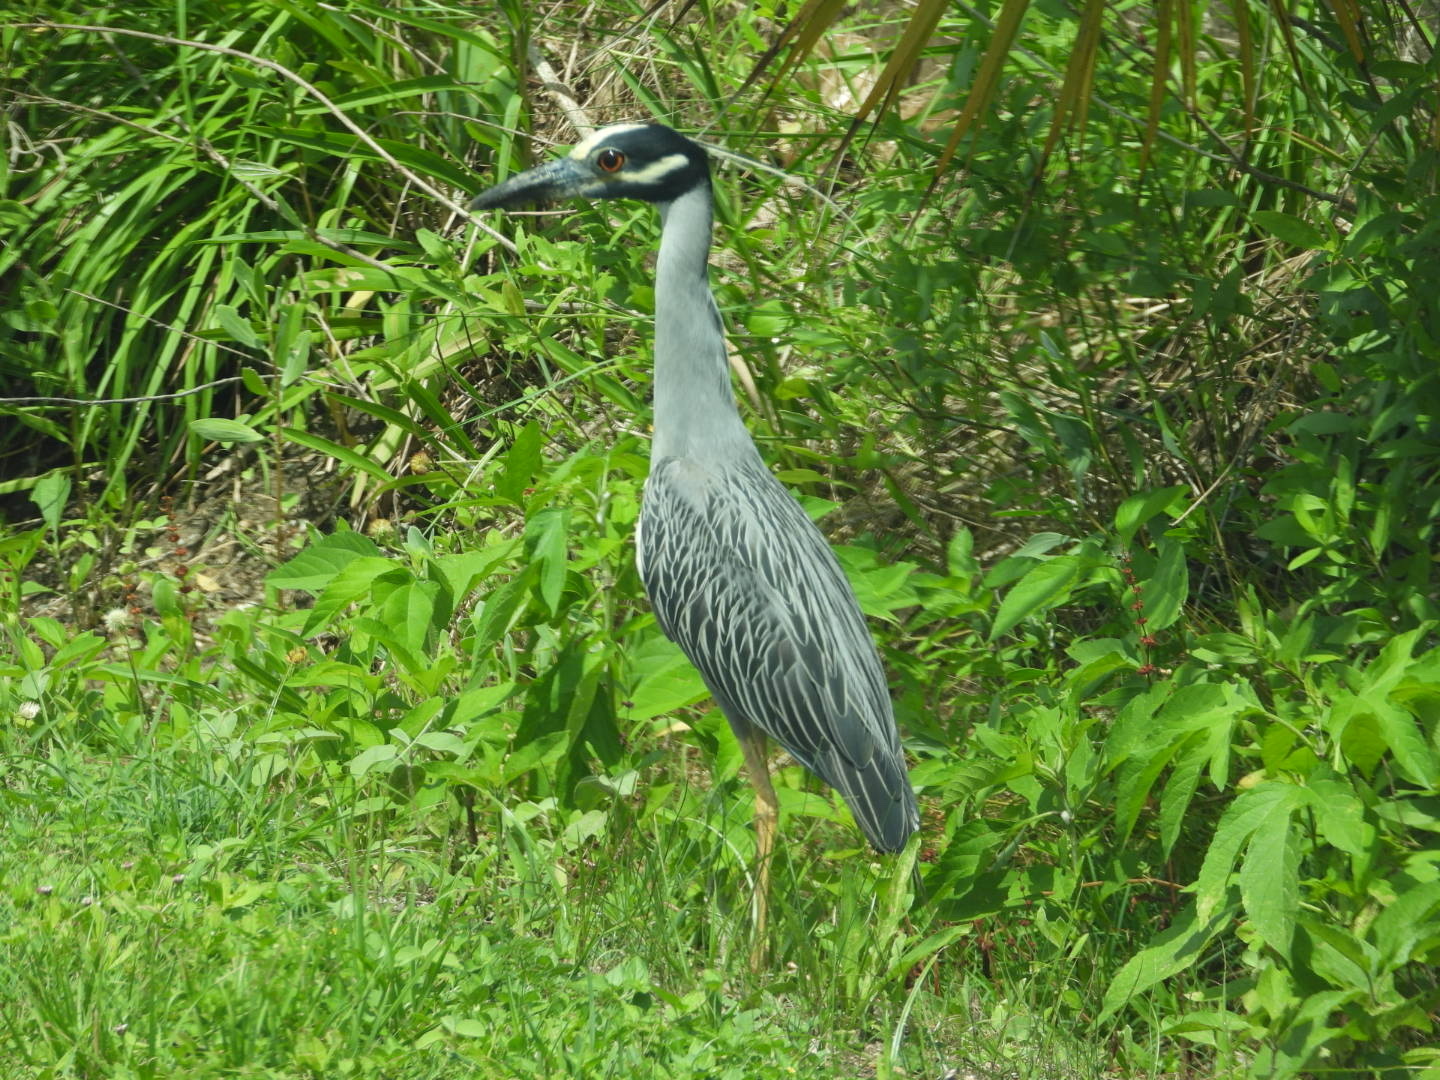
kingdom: Animalia
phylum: Chordata
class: Aves
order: Pelecaniformes
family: Ardeidae
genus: Nyctanassa
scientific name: Nyctanassa violacea
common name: Yellow-crowned night heron
